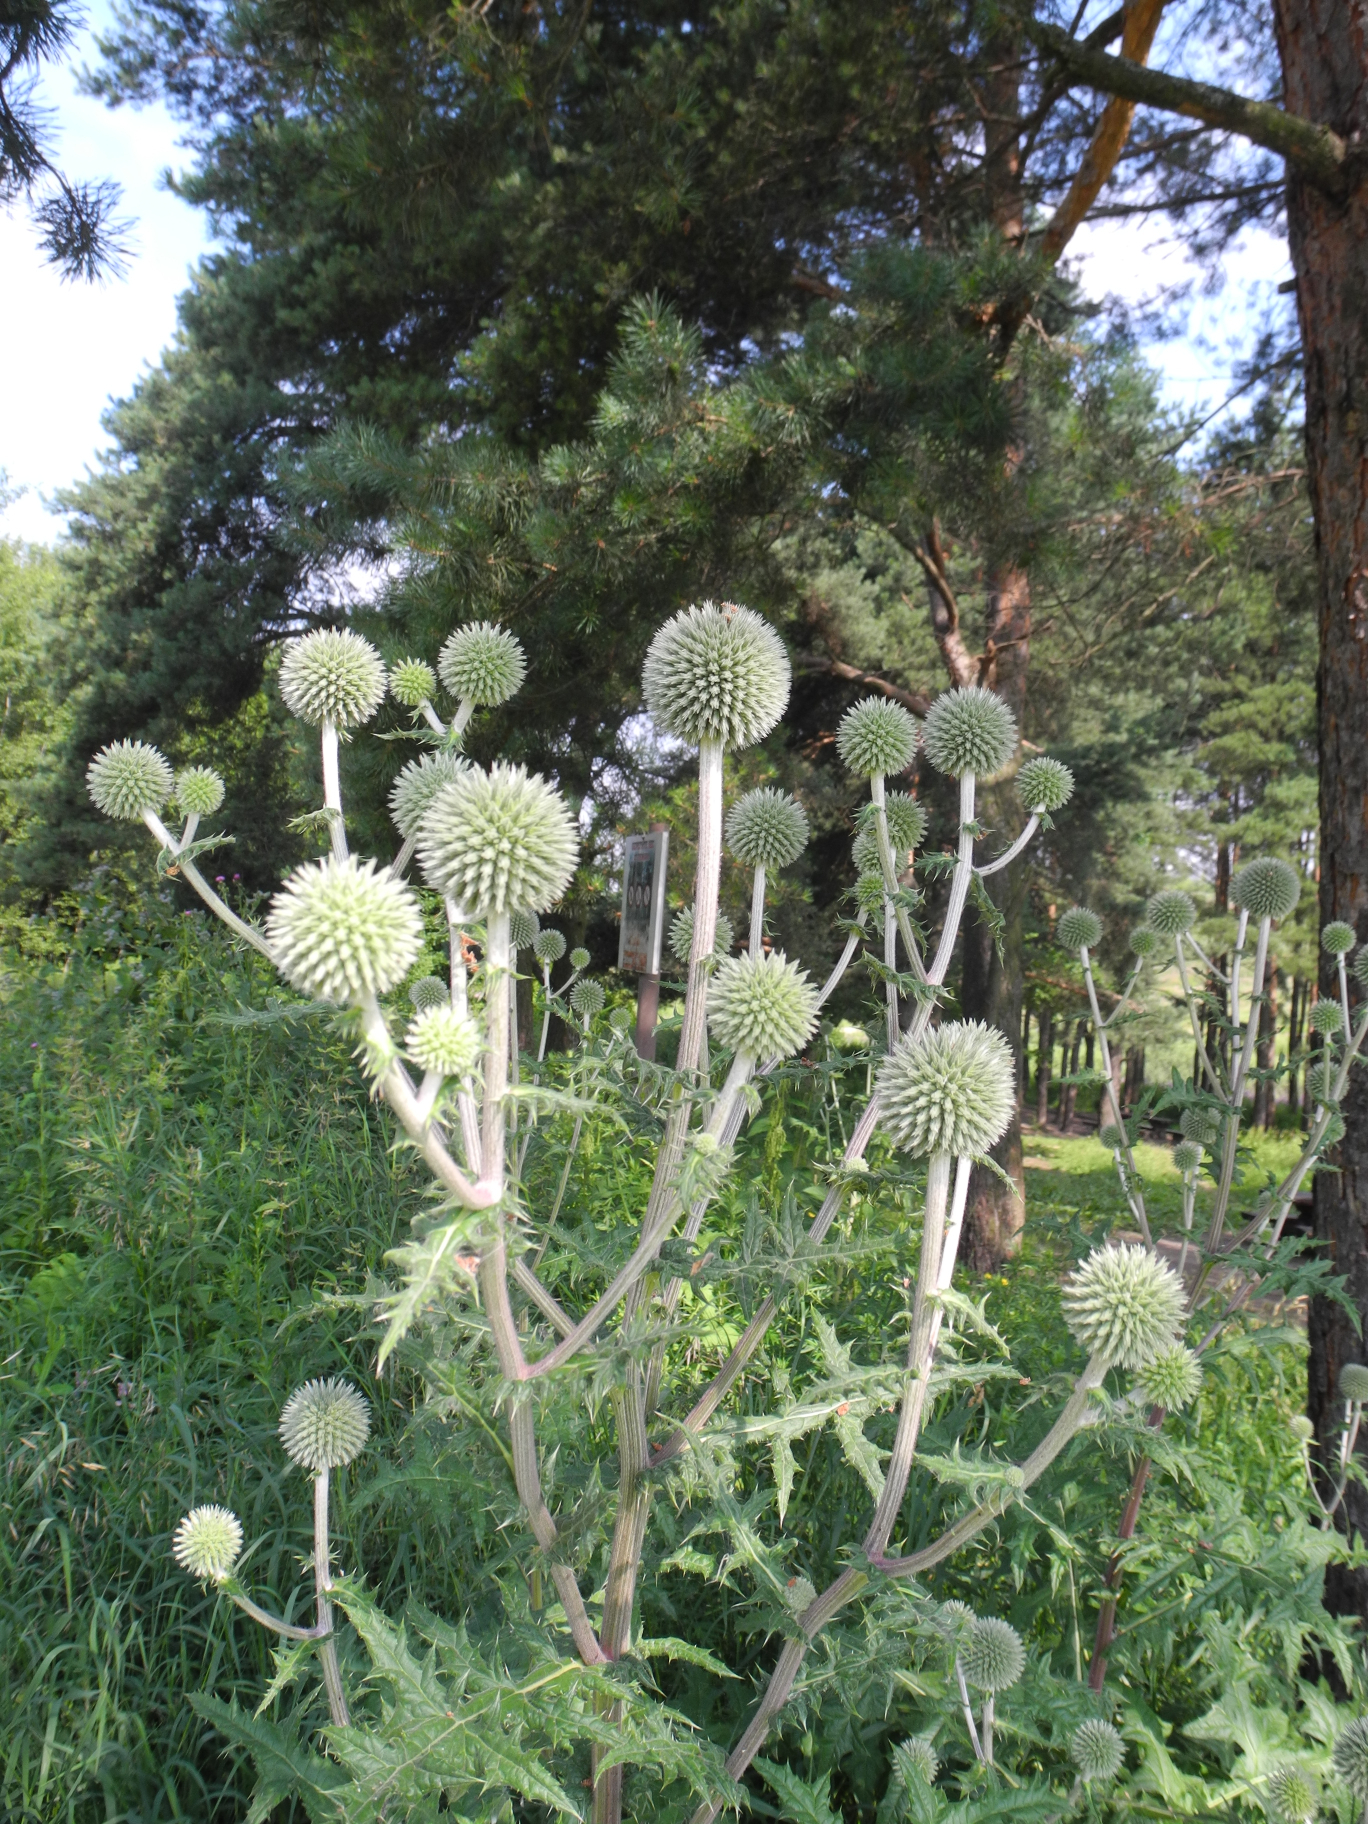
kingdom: Plantae
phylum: Tracheophyta
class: Magnoliopsida
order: Asterales
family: Asteraceae
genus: Echinops
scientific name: Echinops sphaerocephalus
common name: Glandular globe-thistle
